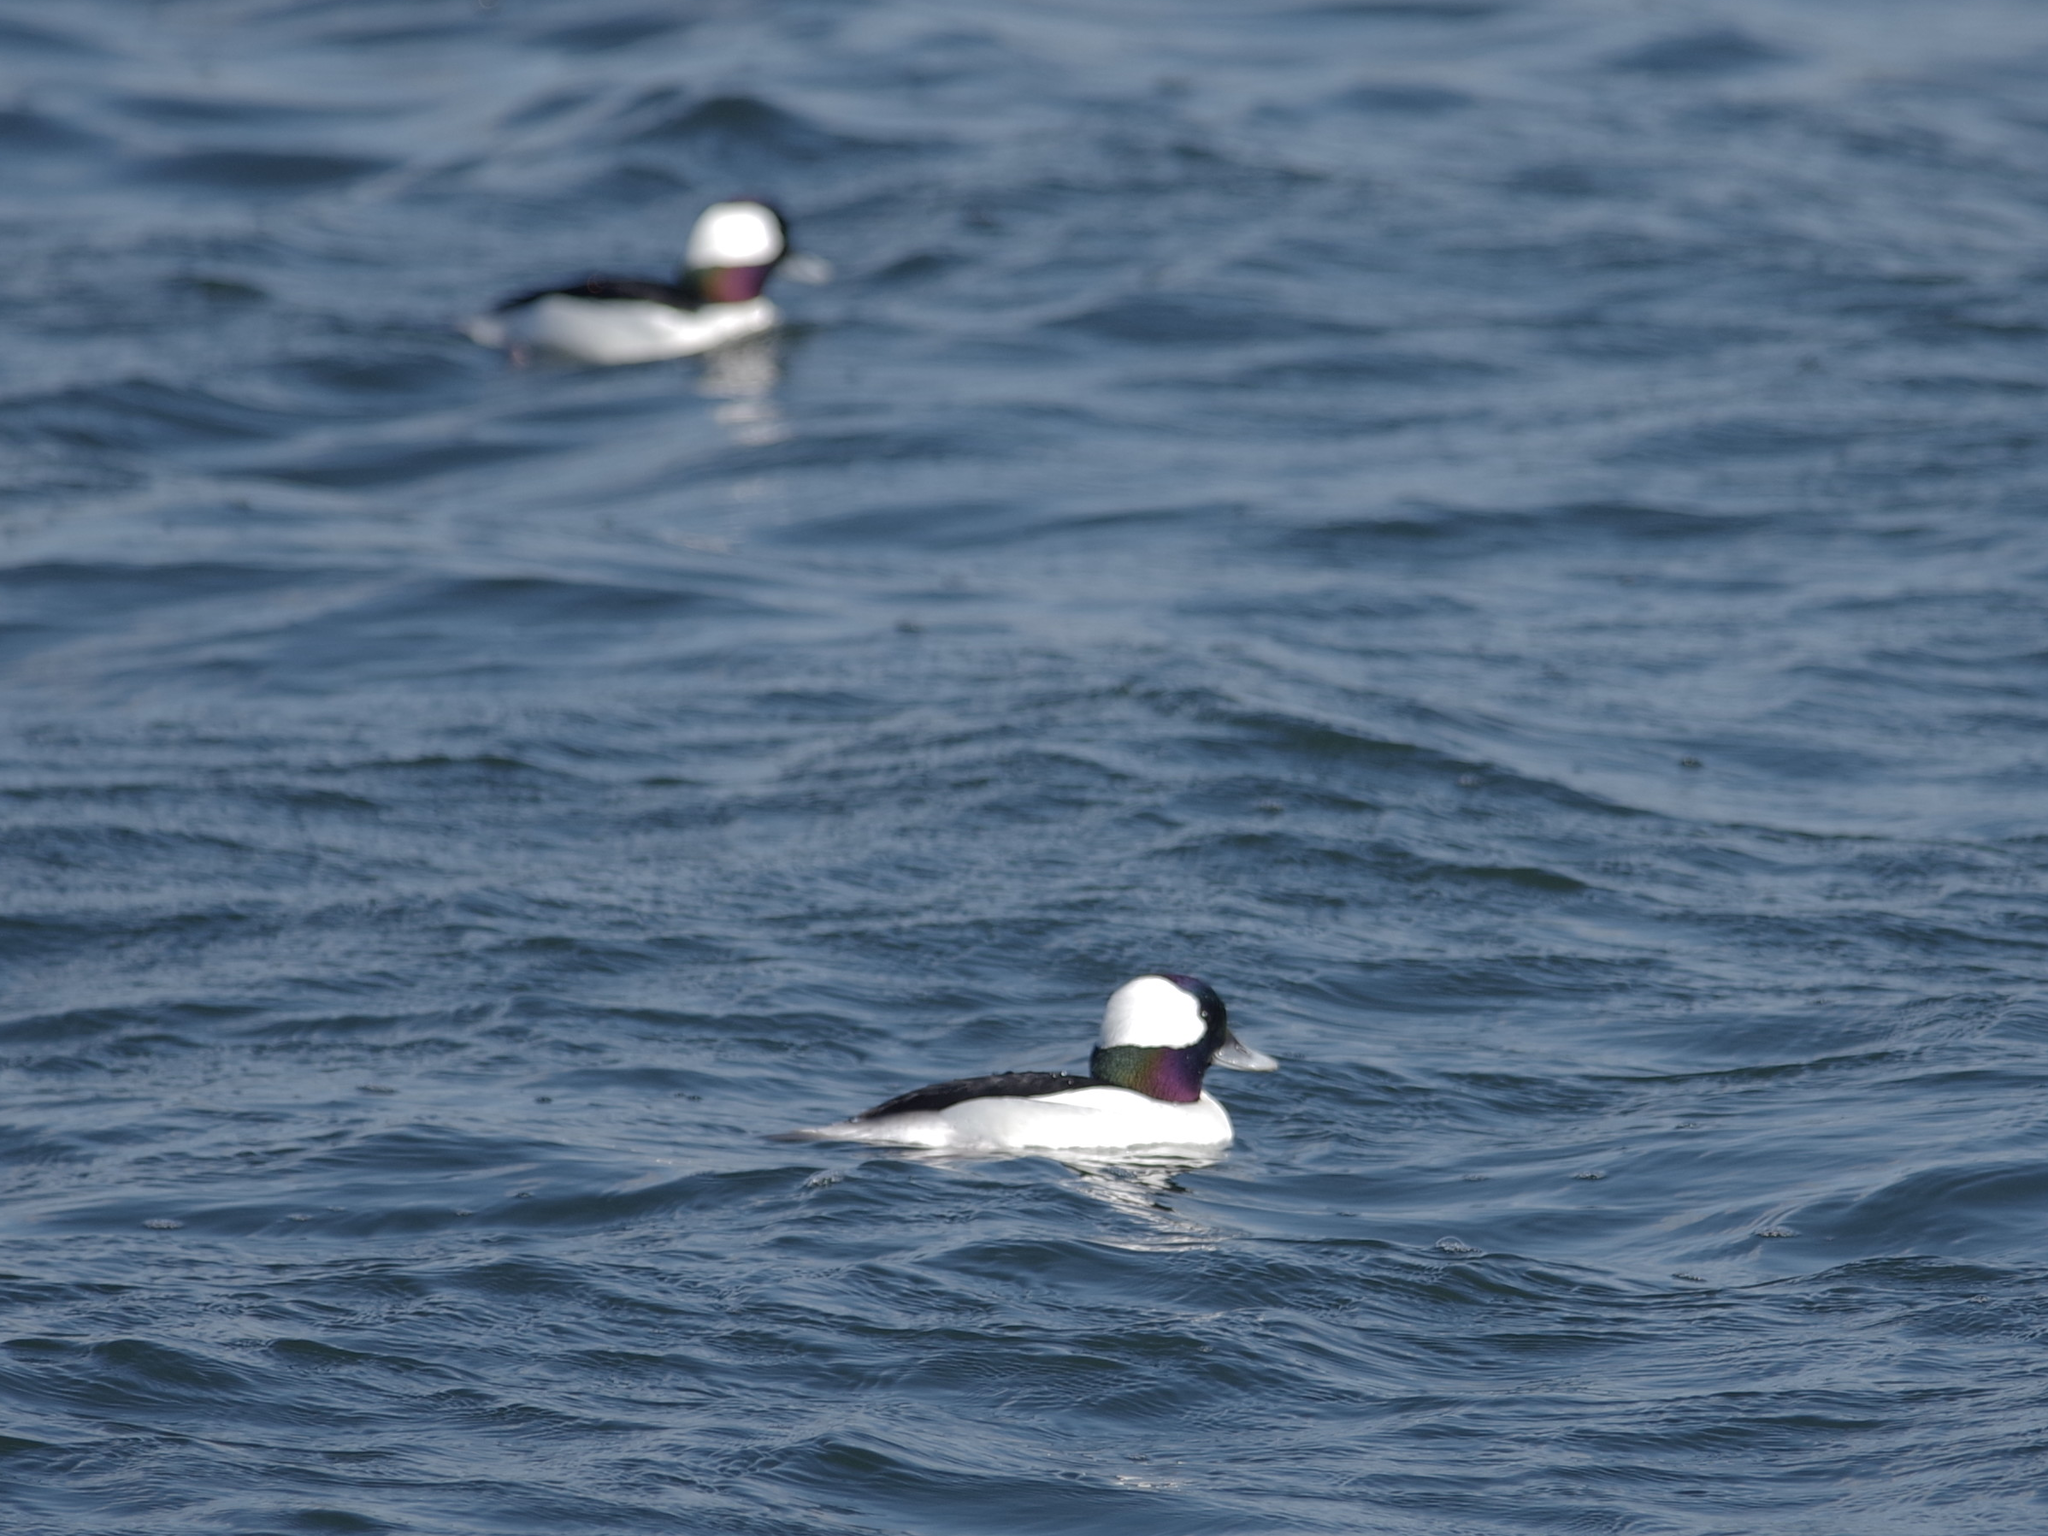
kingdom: Animalia
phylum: Chordata
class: Aves
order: Anseriformes
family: Anatidae
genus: Bucephala
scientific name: Bucephala albeola
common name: Bufflehead
